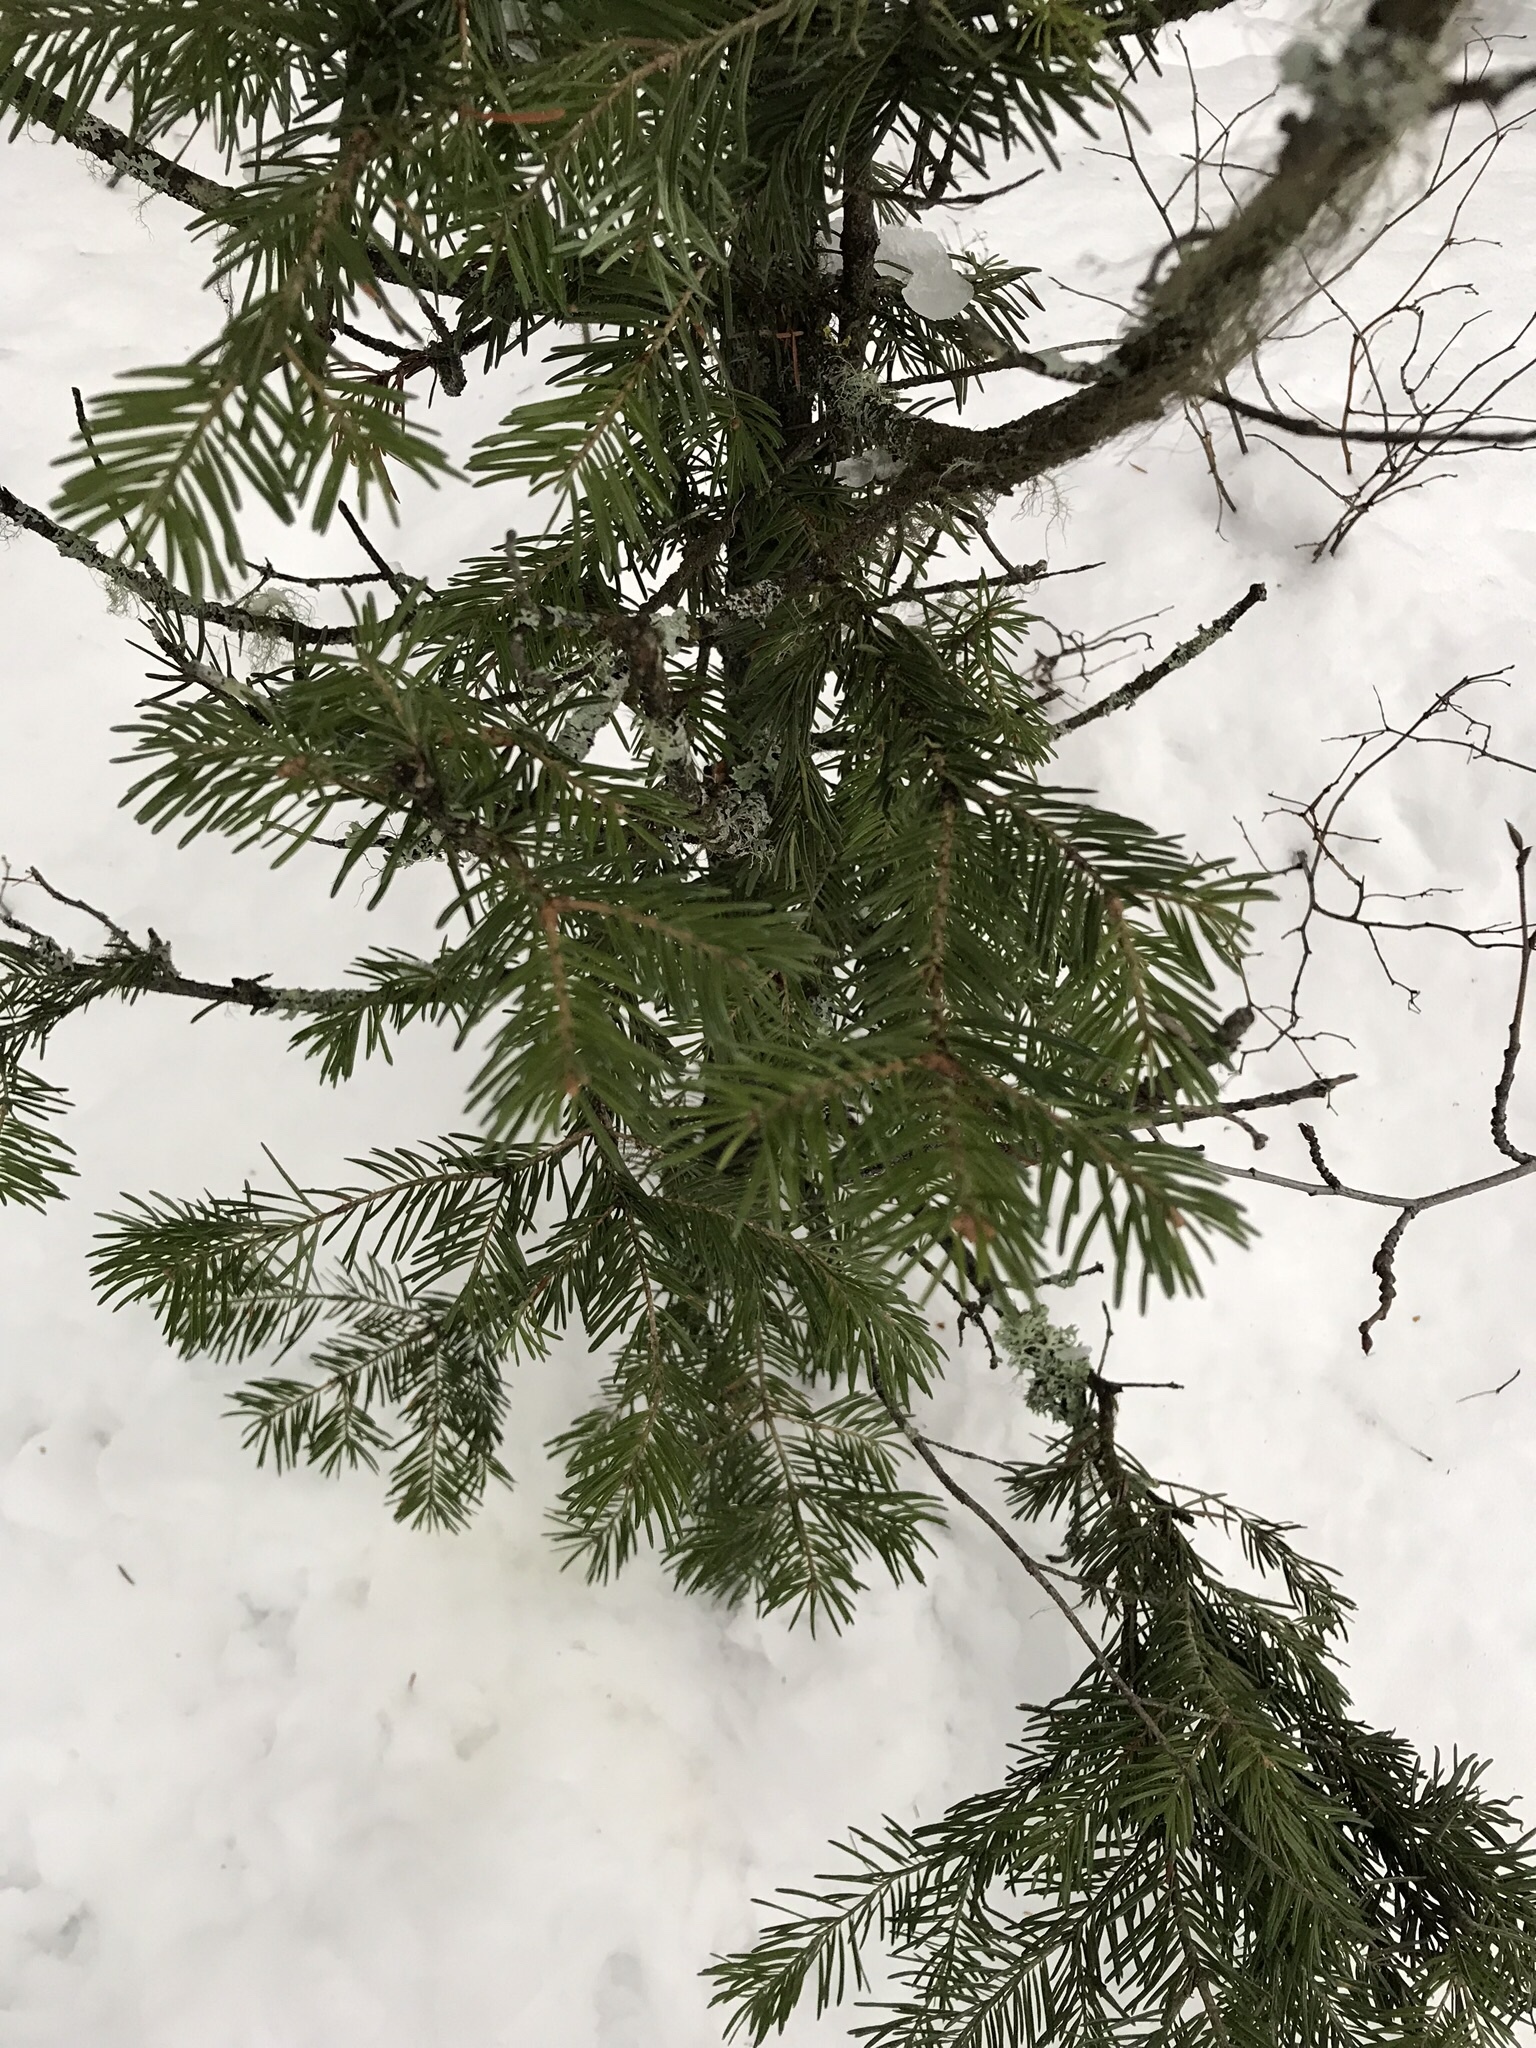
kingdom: Plantae
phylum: Tracheophyta
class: Pinopsida
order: Pinales
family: Pinaceae
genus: Pseudotsuga
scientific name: Pseudotsuga menziesii
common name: Douglas fir
